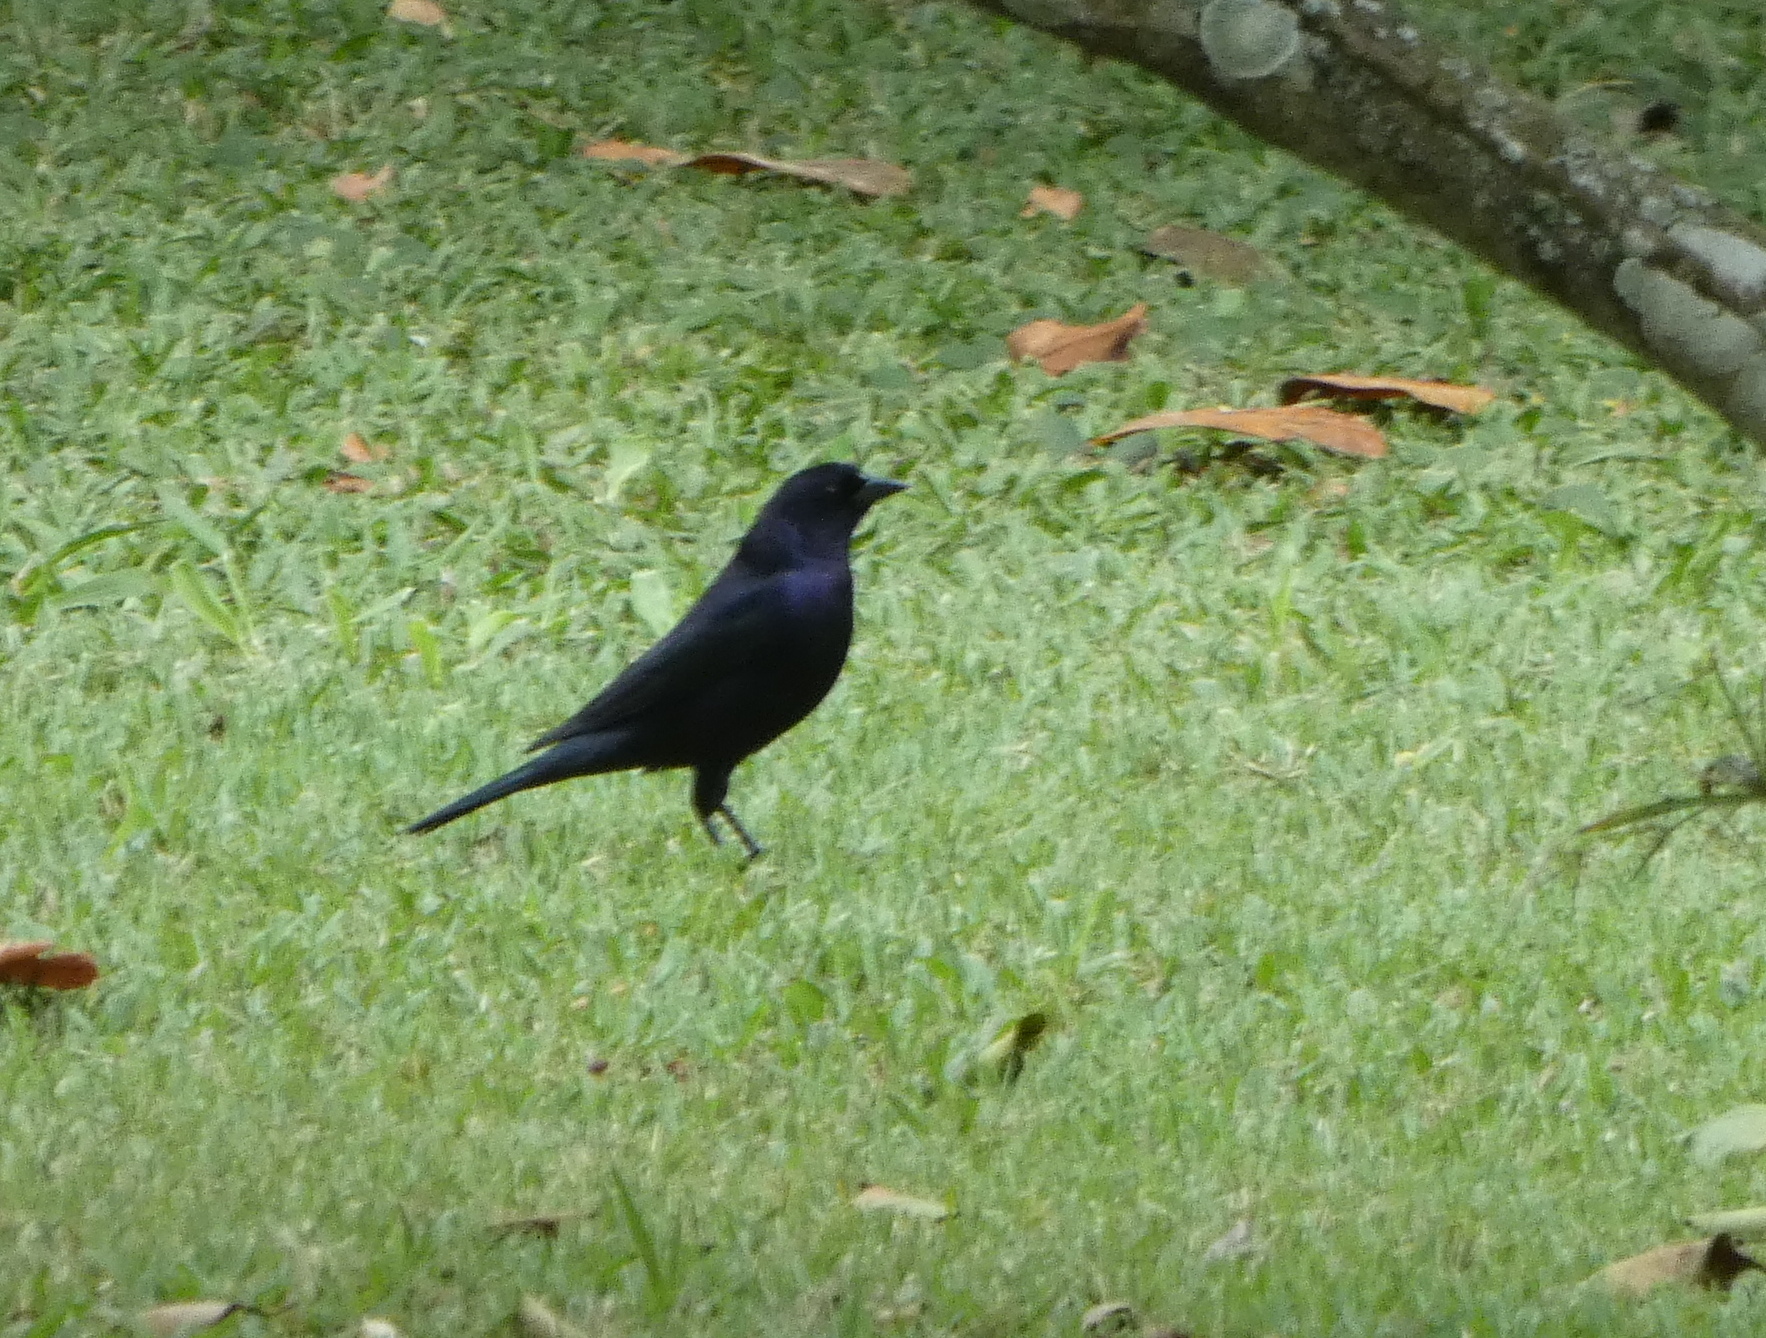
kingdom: Animalia
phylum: Chordata
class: Aves
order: Passeriformes
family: Icteridae
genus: Molothrus
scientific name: Molothrus bonariensis
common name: Shiny cowbird
